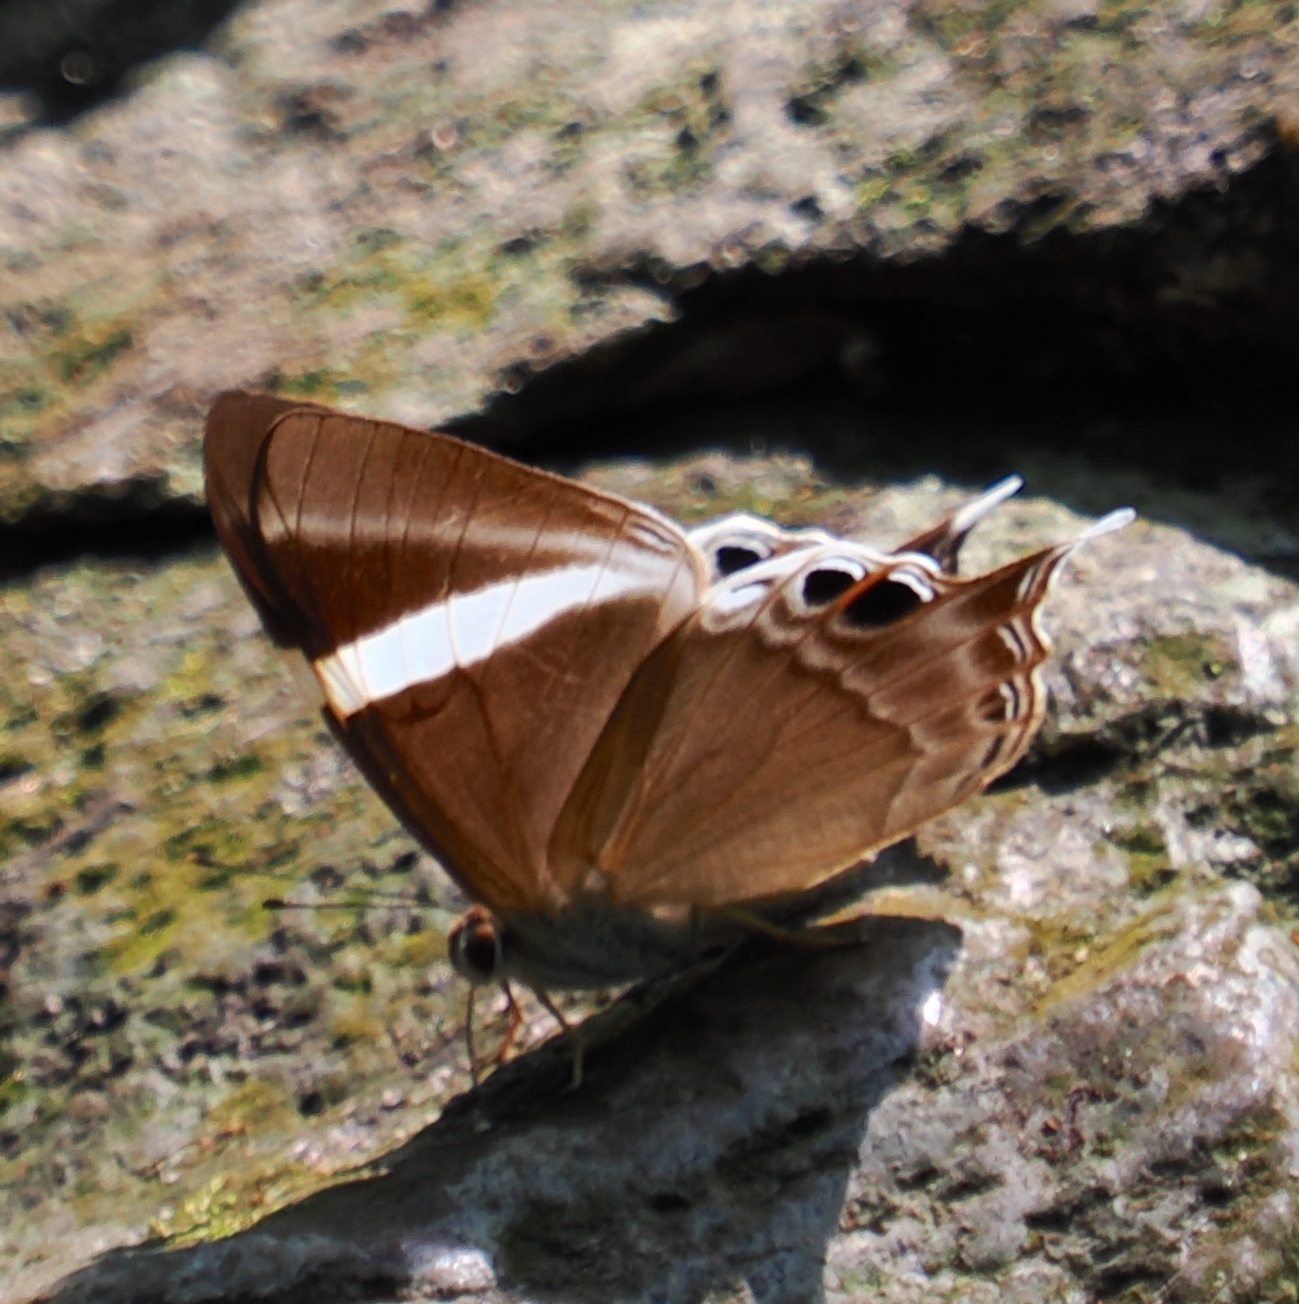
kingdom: Animalia
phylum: Arthropoda
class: Insecta
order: Lepidoptera
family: Lycaenidae
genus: Abisara
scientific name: Abisara neophron
